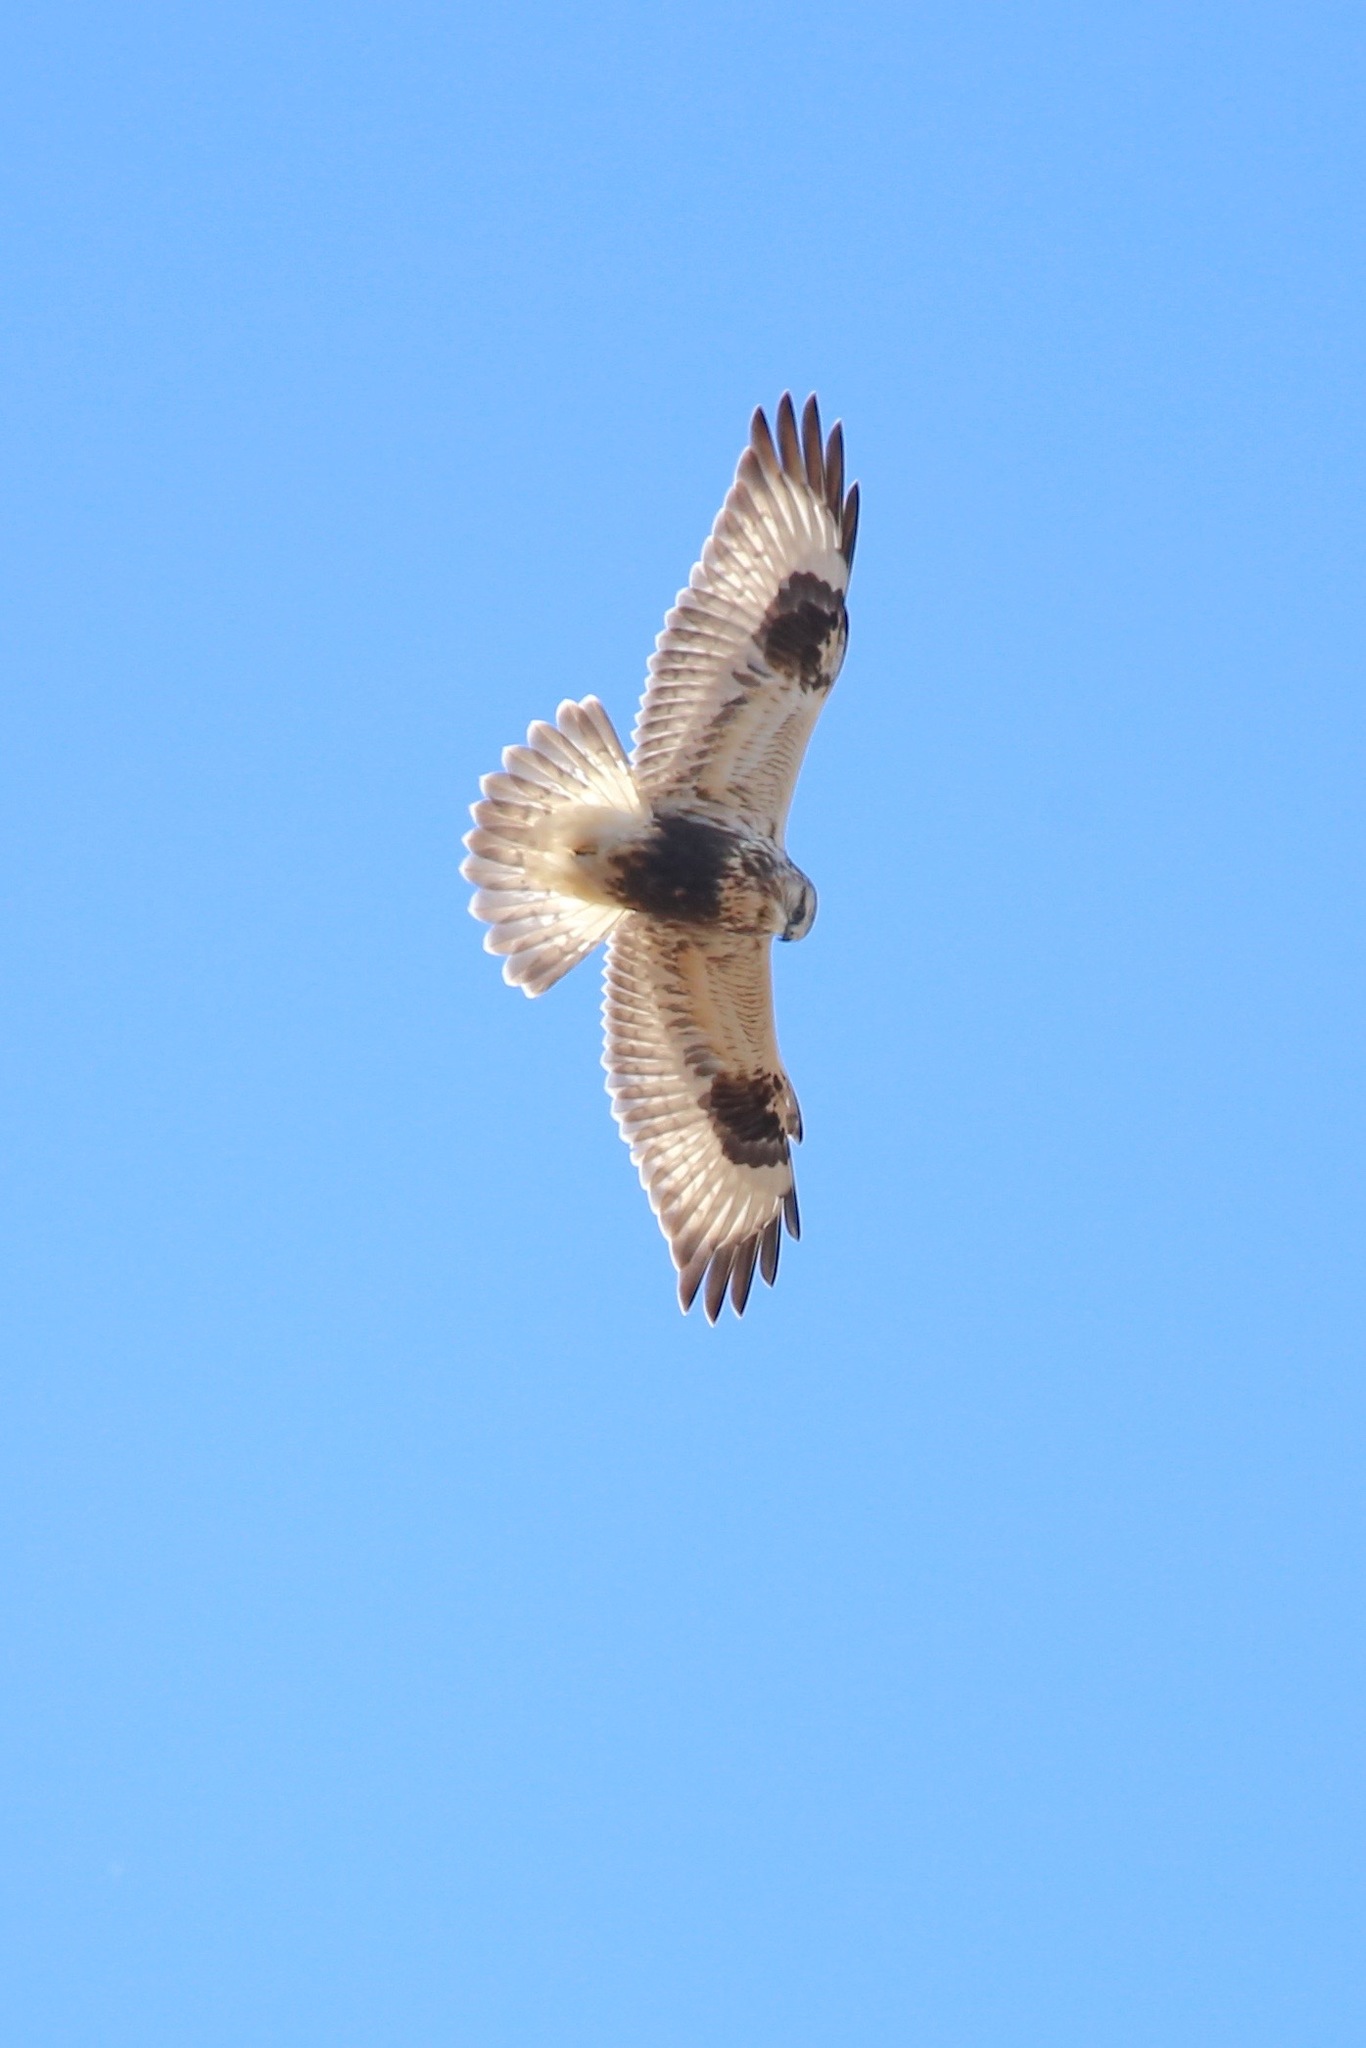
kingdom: Animalia
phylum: Chordata
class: Aves
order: Accipitriformes
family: Accipitridae
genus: Buteo
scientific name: Buteo lagopus
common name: Rough-legged buzzard
